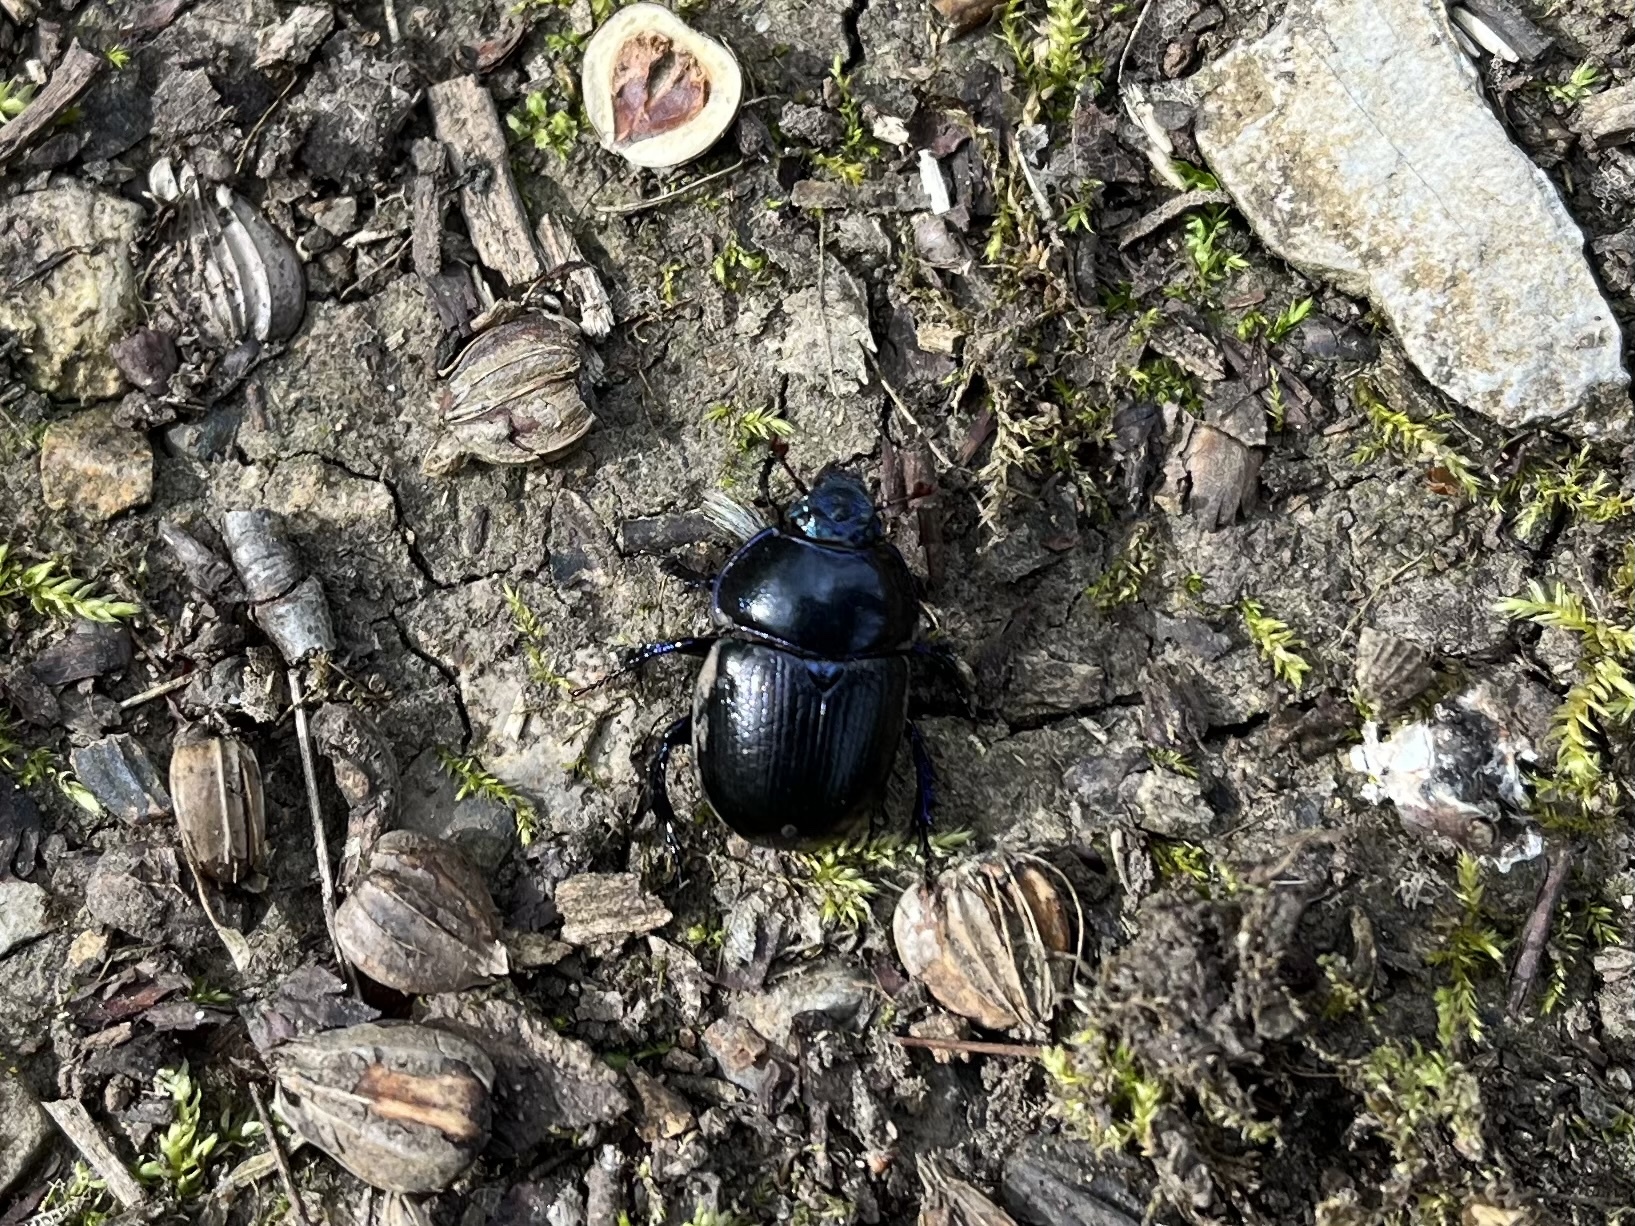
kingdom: Animalia
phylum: Arthropoda
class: Insecta
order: Coleoptera
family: Geotrupidae
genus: Anoplotrupes
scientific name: Anoplotrupes stercorosus
